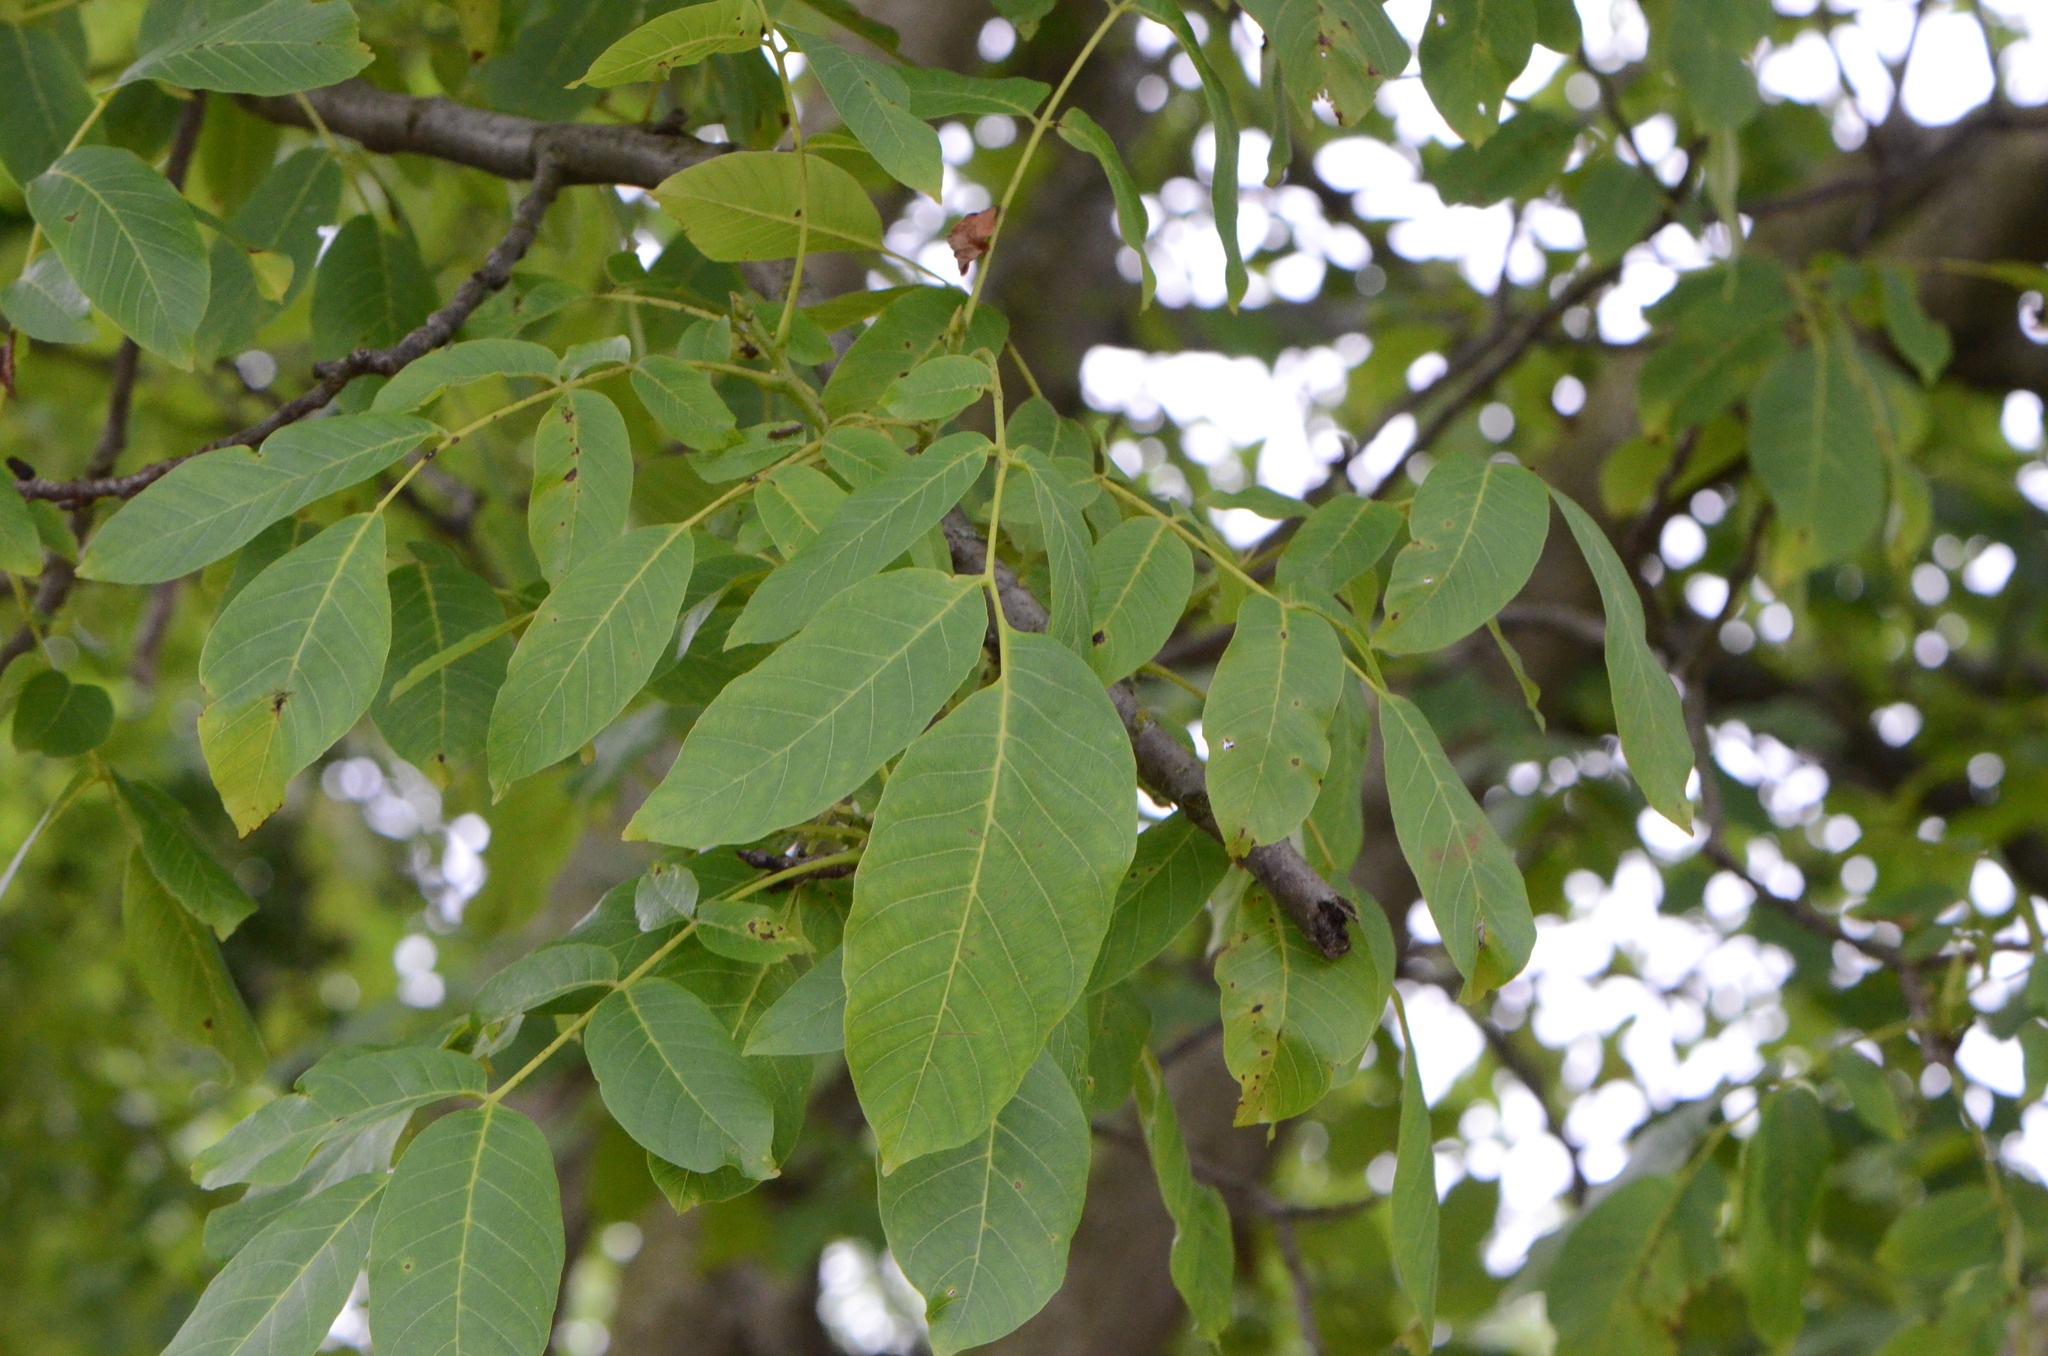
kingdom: Plantae
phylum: Tracheophyta
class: Magnoliopsida
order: Fagales
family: Juglandaceae
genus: Juglans
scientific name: Juglans regia
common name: Walnut
